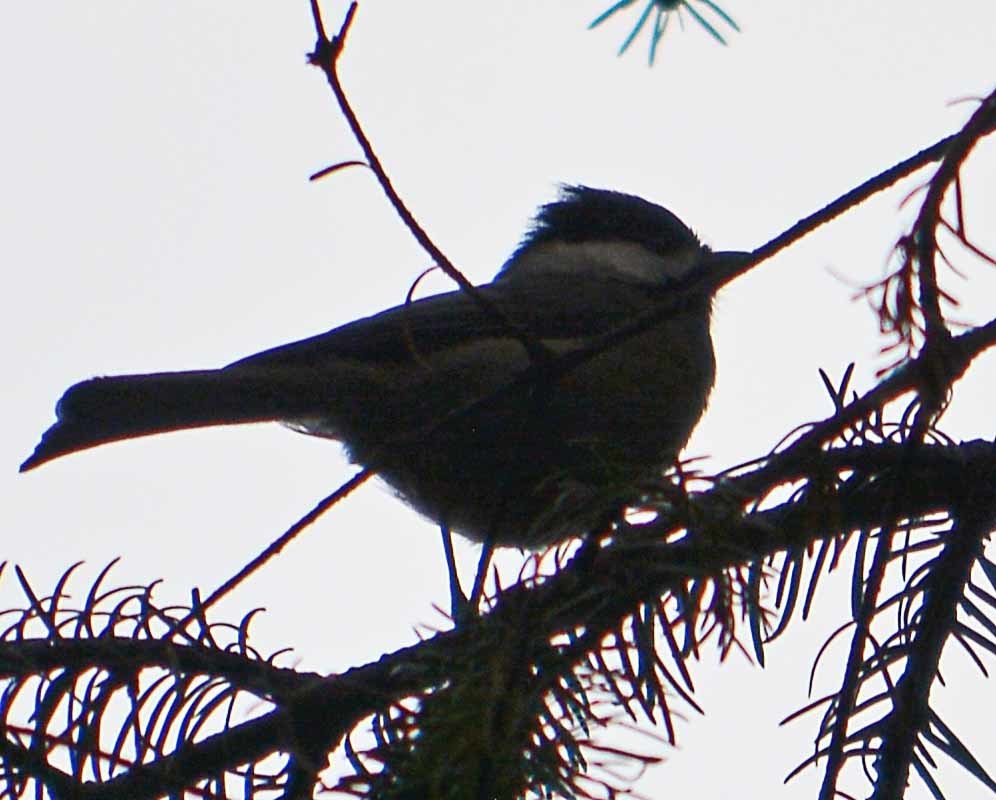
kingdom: Animalia
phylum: Chordata
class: Aves
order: Passeriformes
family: Paridae
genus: Poecile
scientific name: Poecile sclateri
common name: Mexican chickadee
